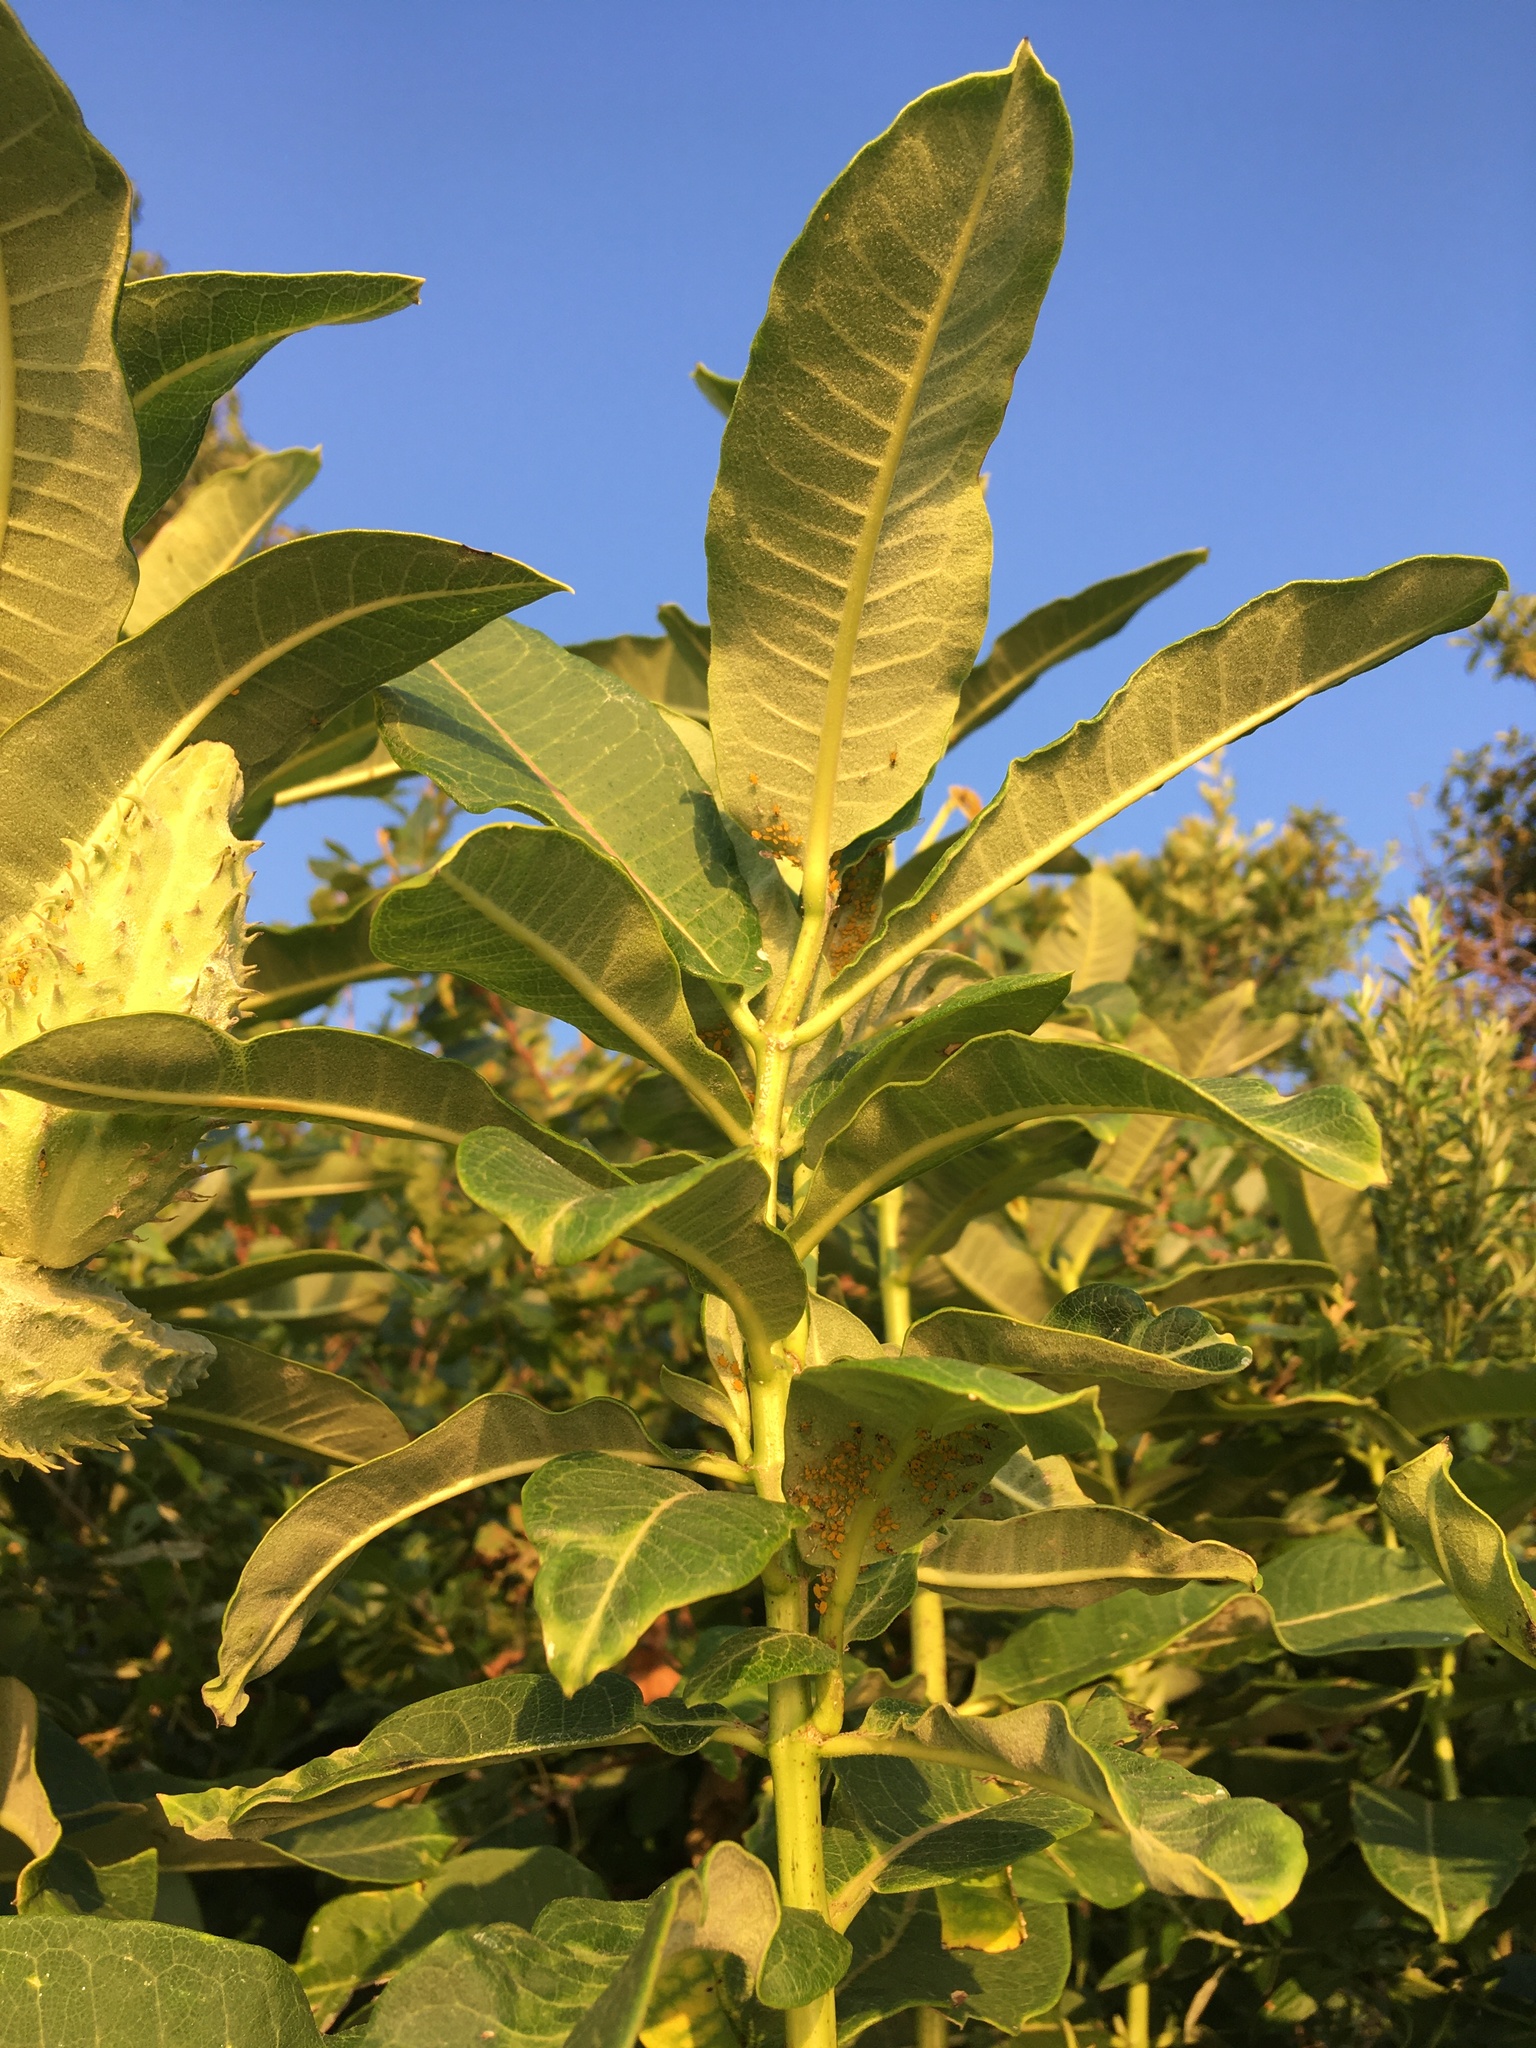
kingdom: Plantae
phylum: Tracheophyta
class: Magnoliopsida
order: Gentianales
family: Apocynaceae
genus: Asclepias
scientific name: Asclepias syriaca
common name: Common milkweed
